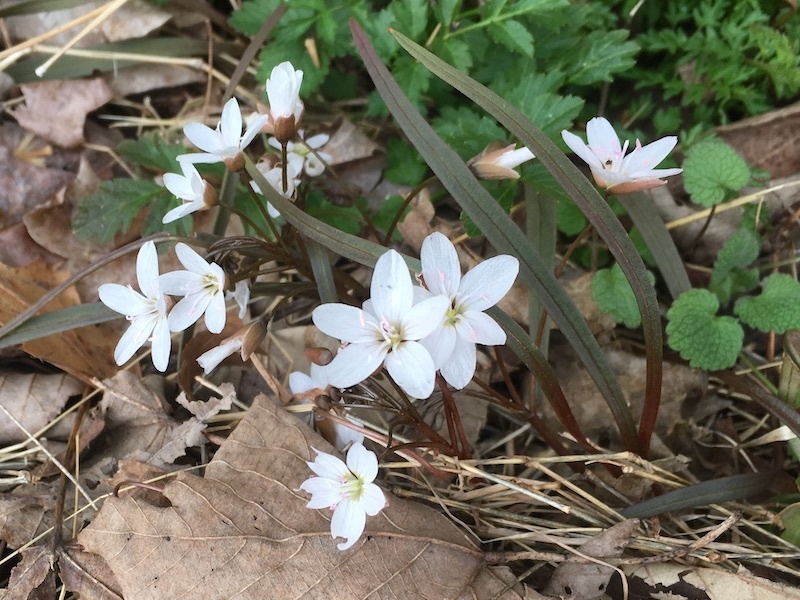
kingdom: Plantae
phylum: Tracheophyta
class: Magnoliopsida
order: Caryophyllales
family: Montiaceae
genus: Claytonia
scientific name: Claytonia virginica
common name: Virginia springbeauty
